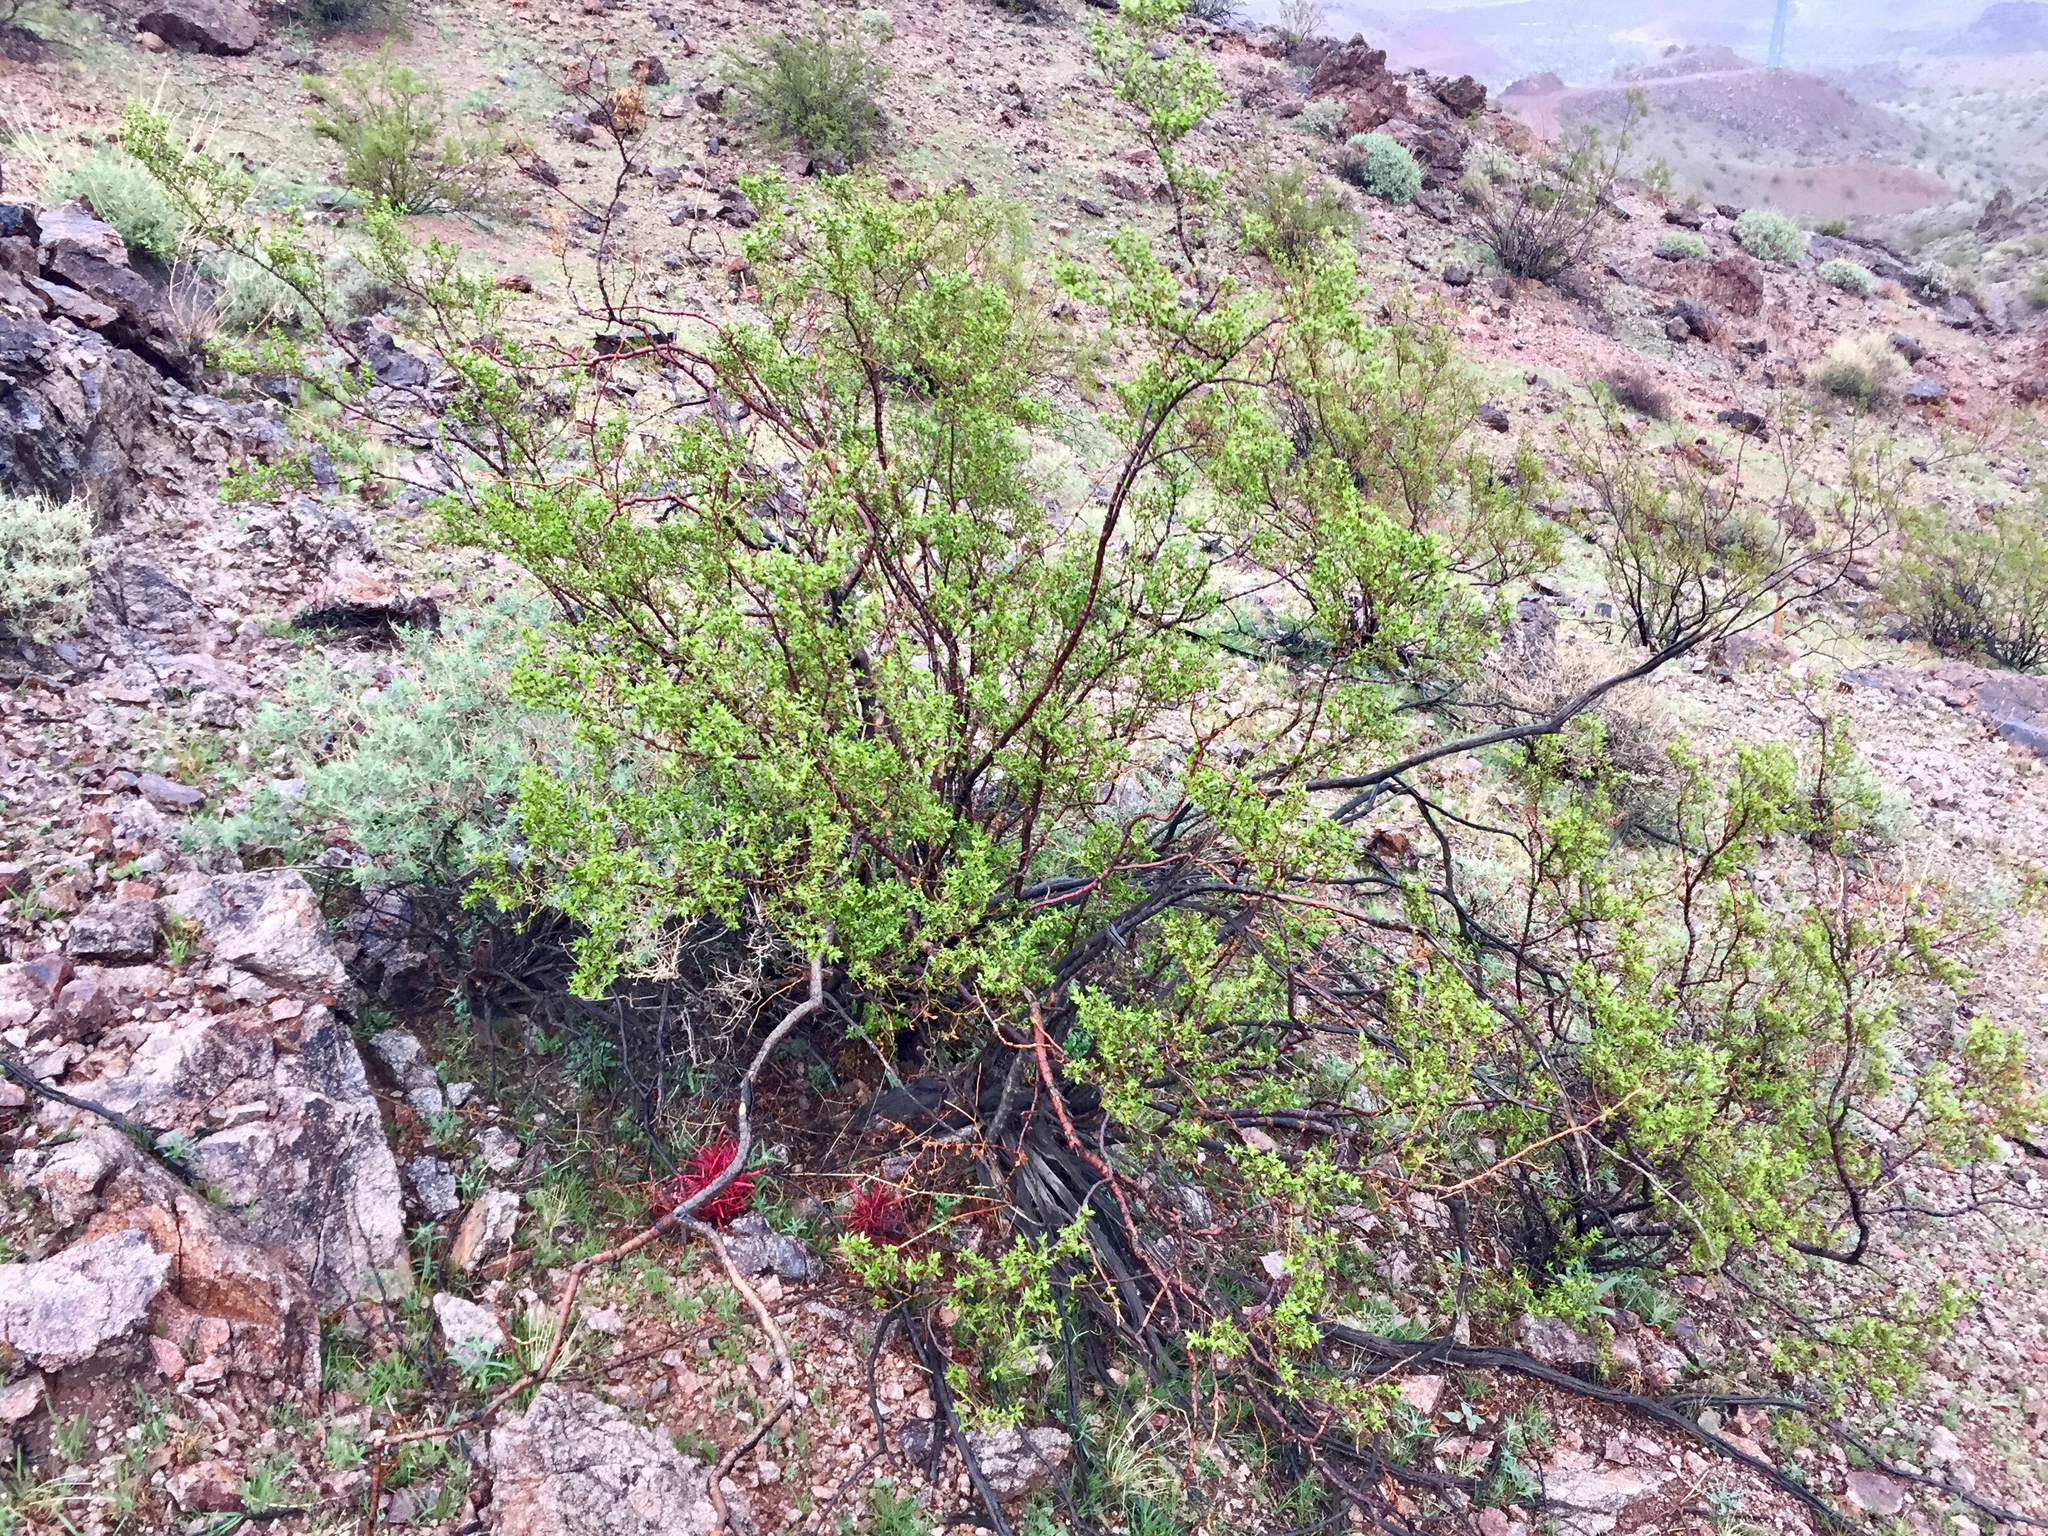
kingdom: Plantae
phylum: Tracheophyta
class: Magnoliopsida
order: Zygophyllales
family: Zygophyllaceae
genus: Larrea
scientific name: Larrea tridentata
